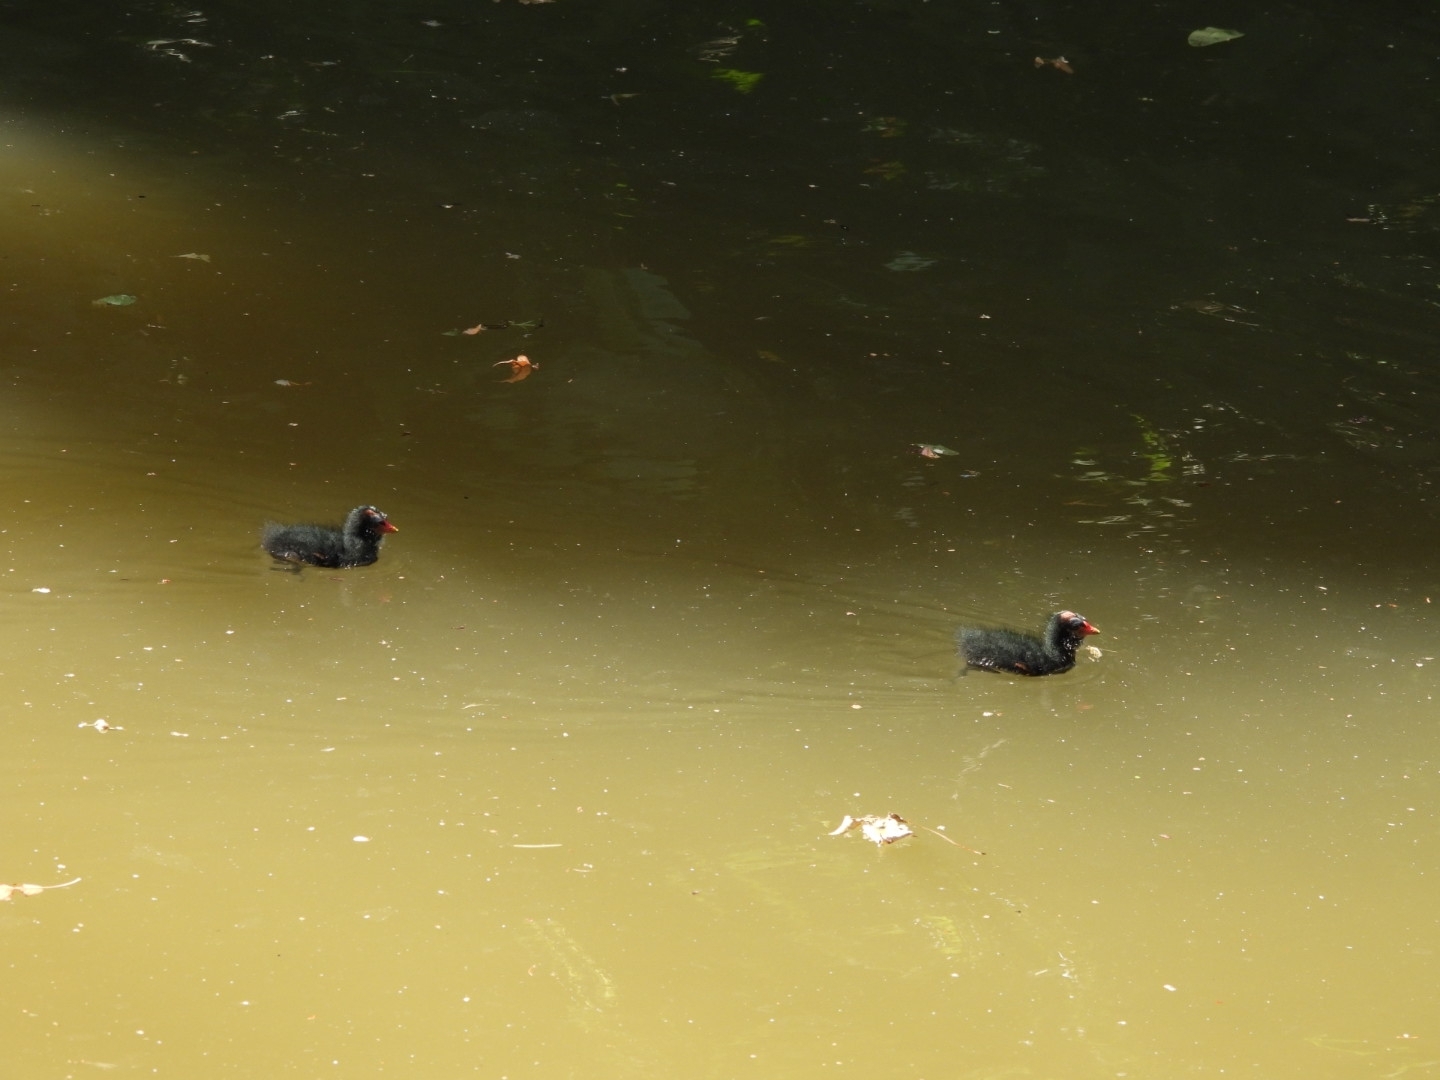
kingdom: Animalia
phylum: Chordata
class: Aves
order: Gruiformes
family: Rallidae
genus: Gallinula
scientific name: Gallinula chloropus
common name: Common moorhen
